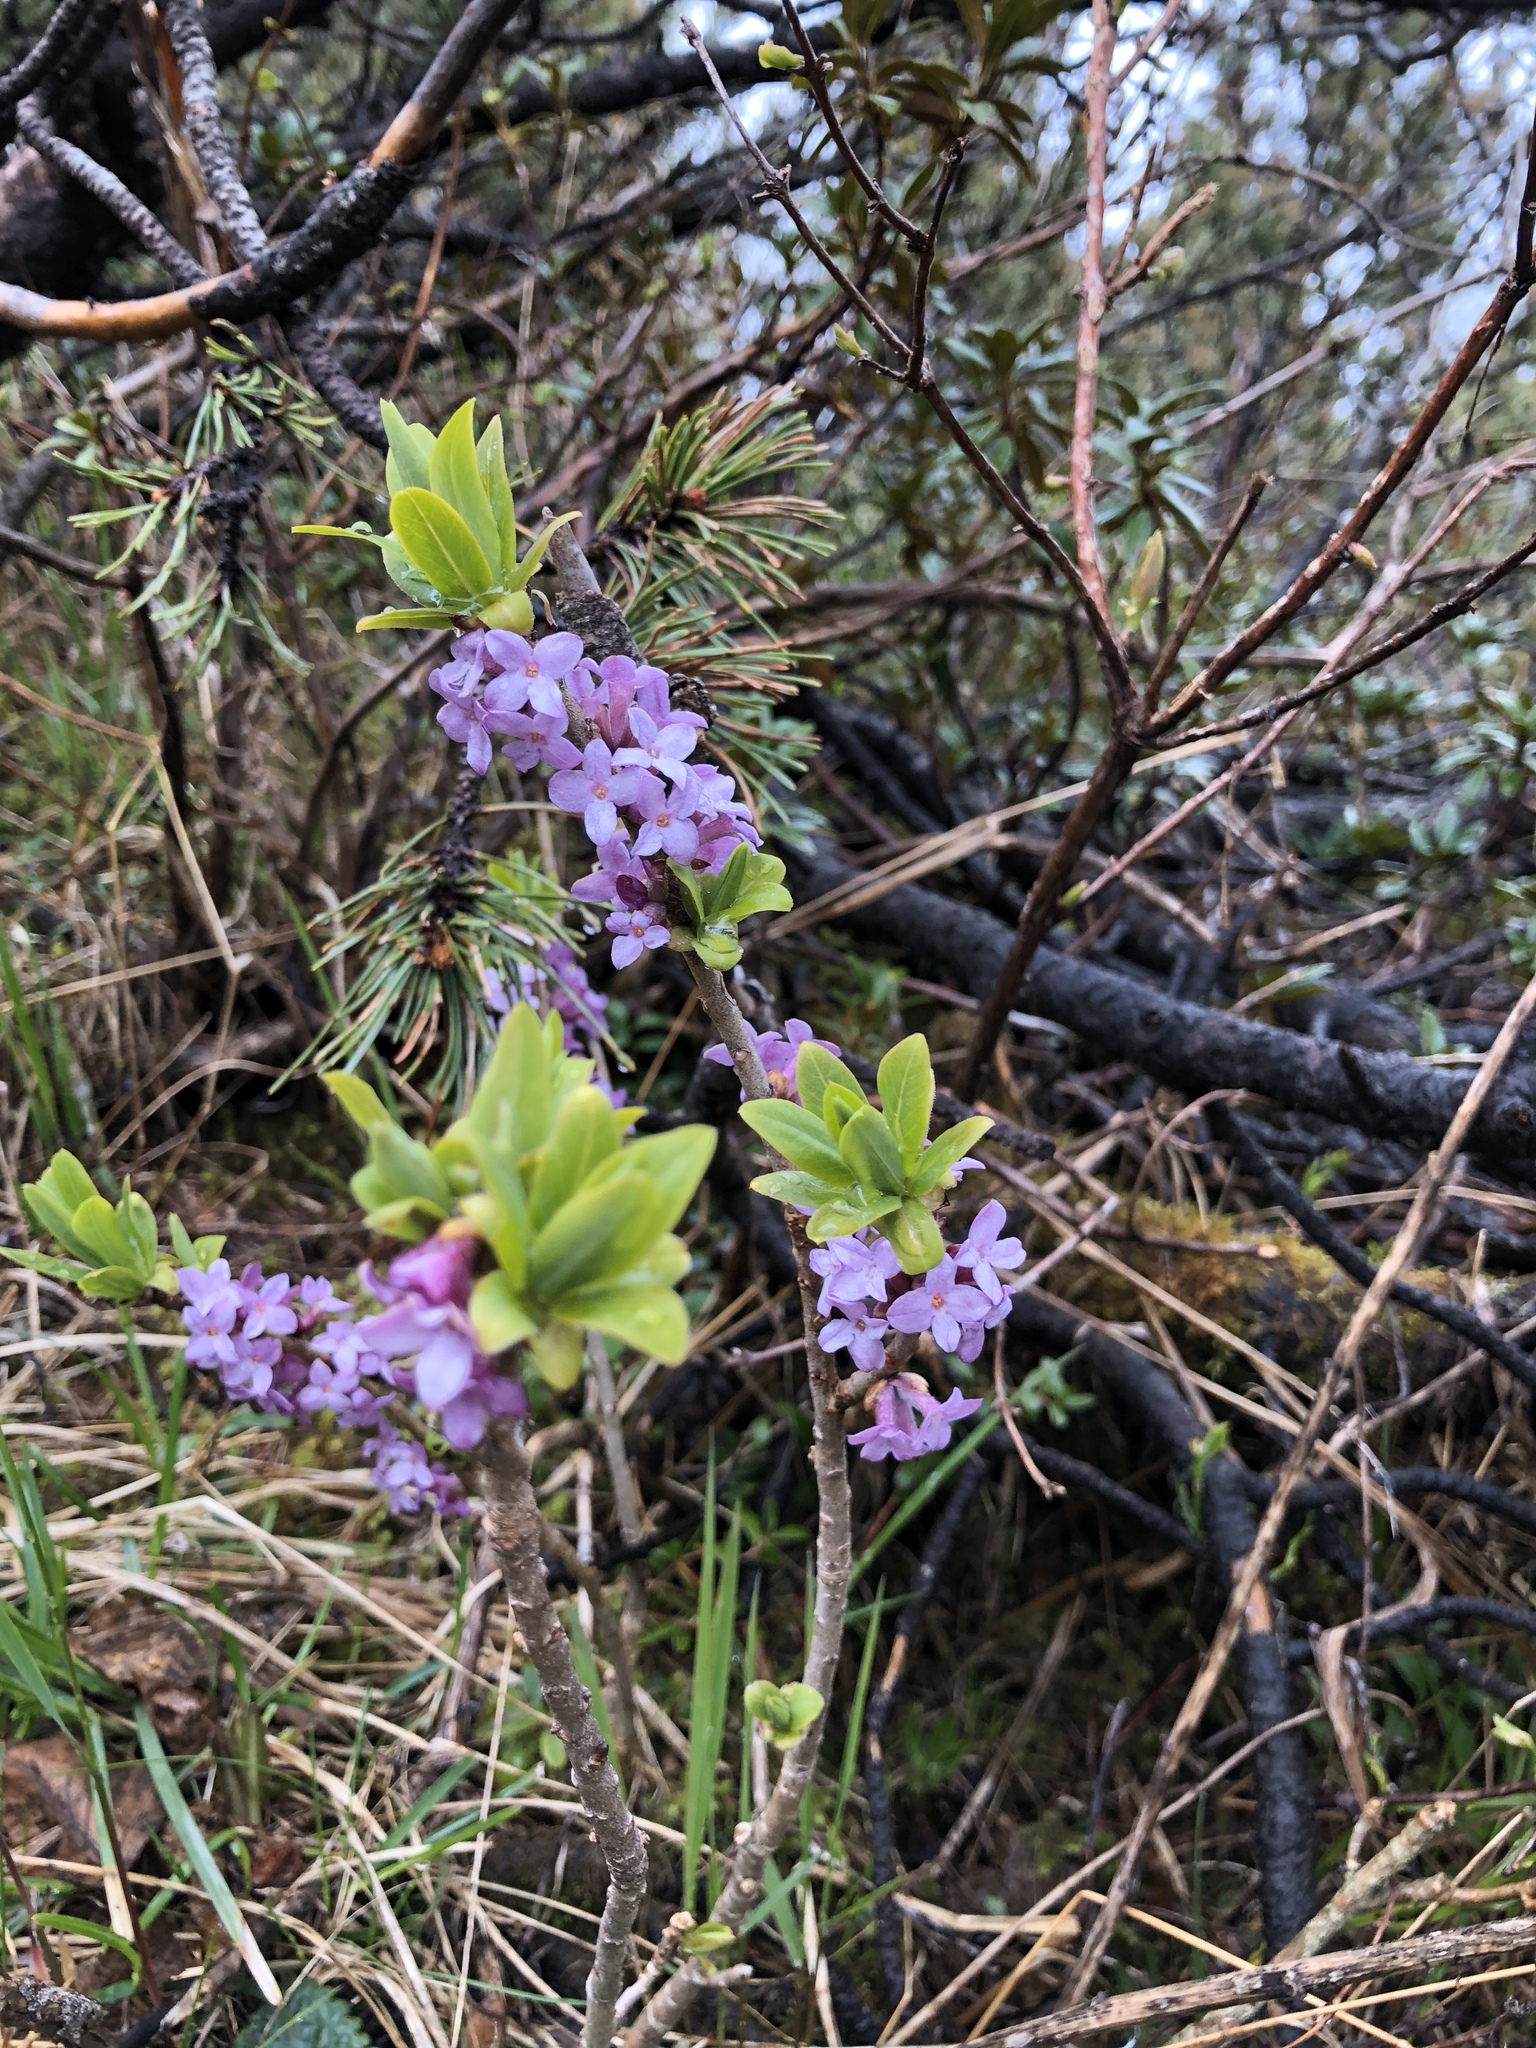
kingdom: Plantae
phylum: Tracheophyta
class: Magnoliopsida
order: Malvales
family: Thymelaeaceae
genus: Daphne
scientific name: Daphne mezereum
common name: Mezereon
